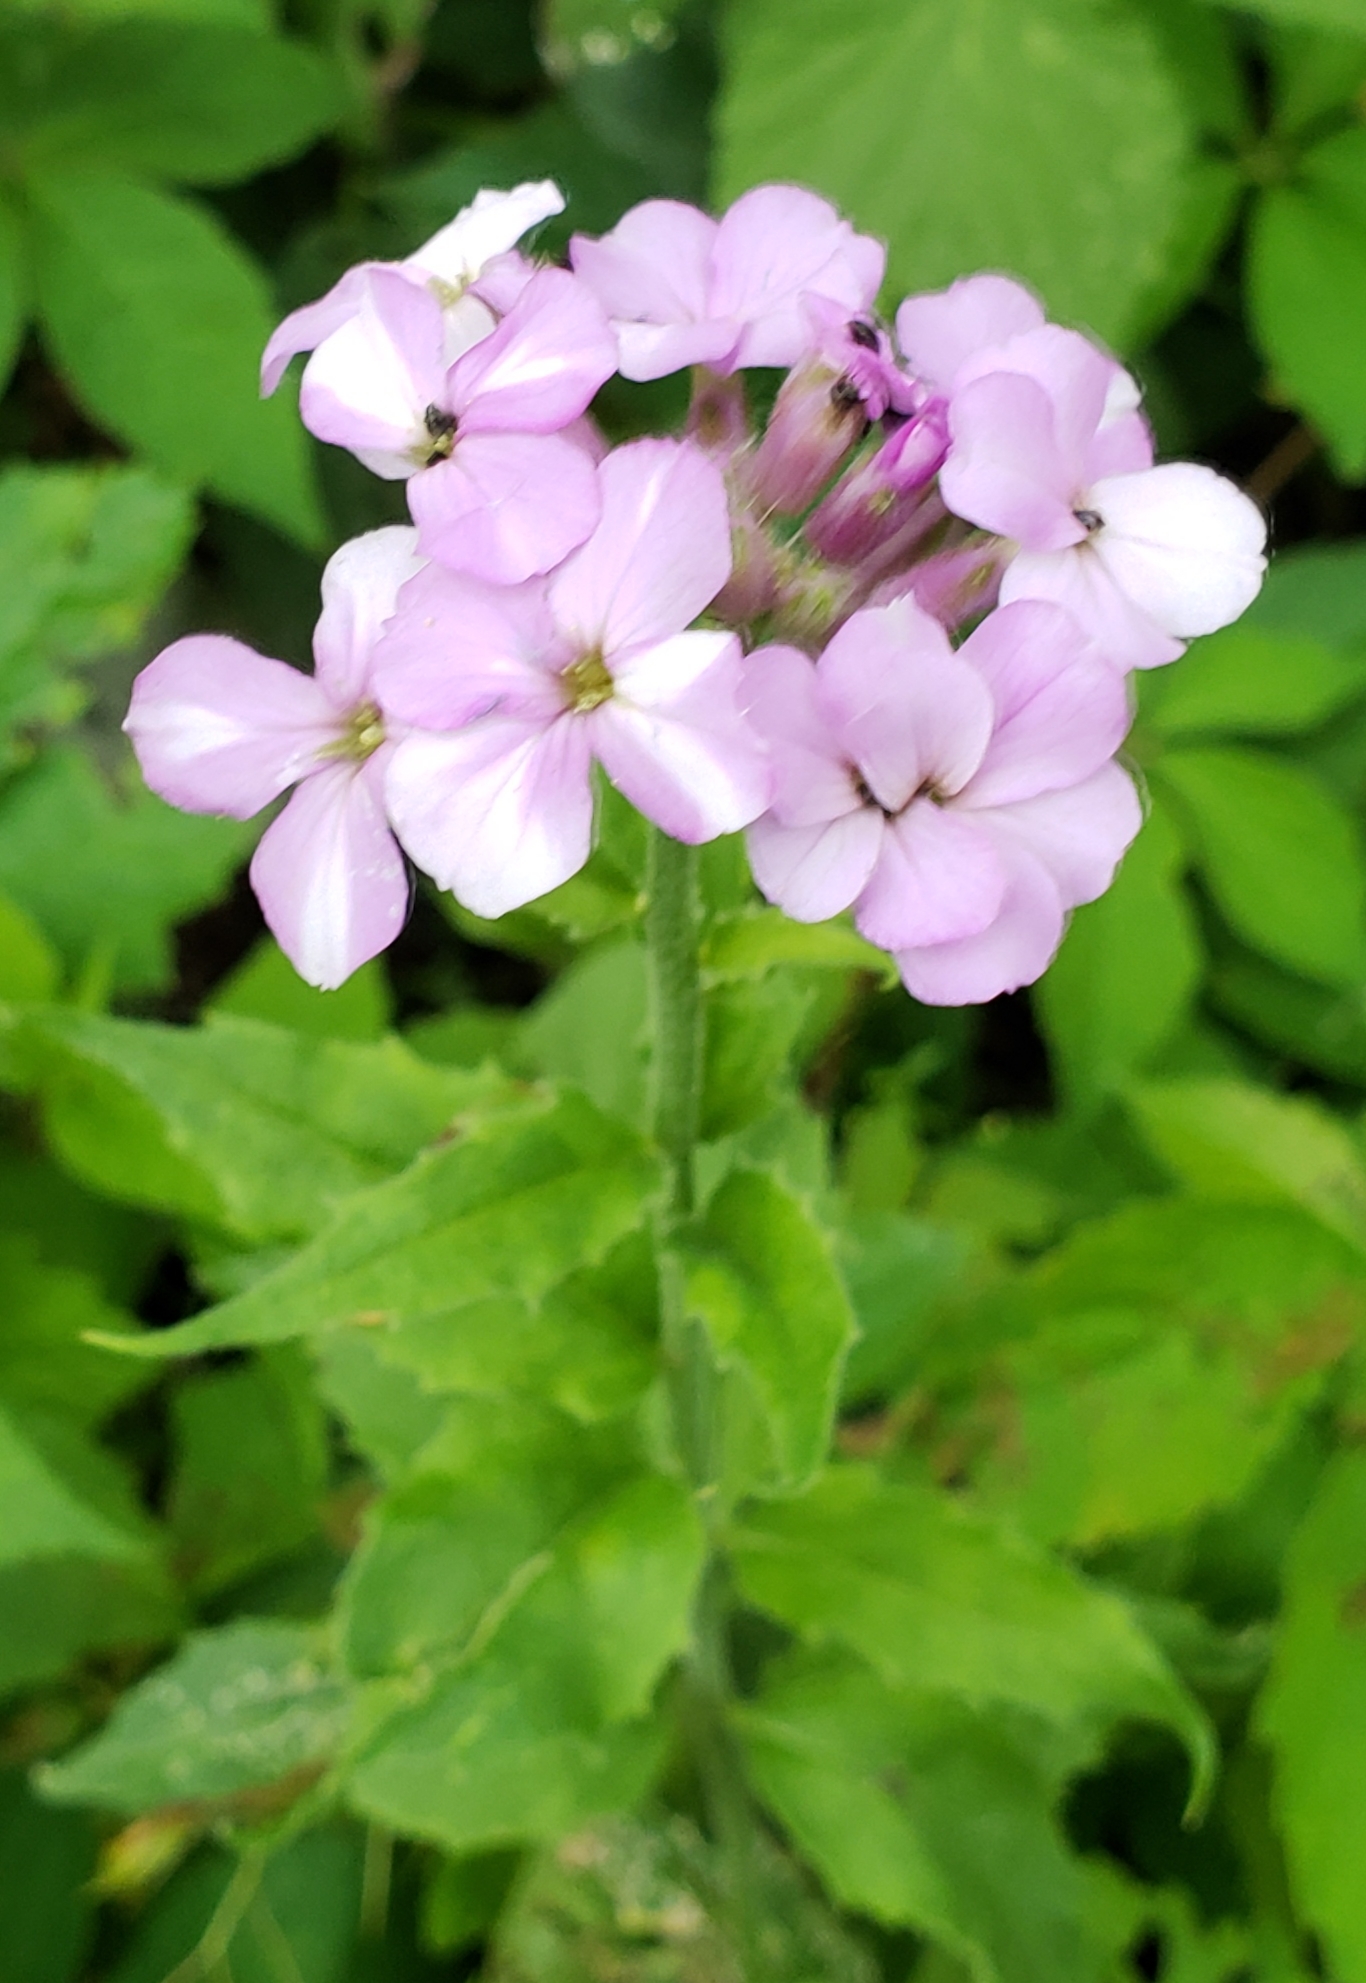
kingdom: Plantae
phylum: Tracheophyta
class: Magnoliopsida
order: Brassicales
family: Brassicaceae
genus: Hesperis
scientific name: Hesperis matronalis
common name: Dame's-violet
